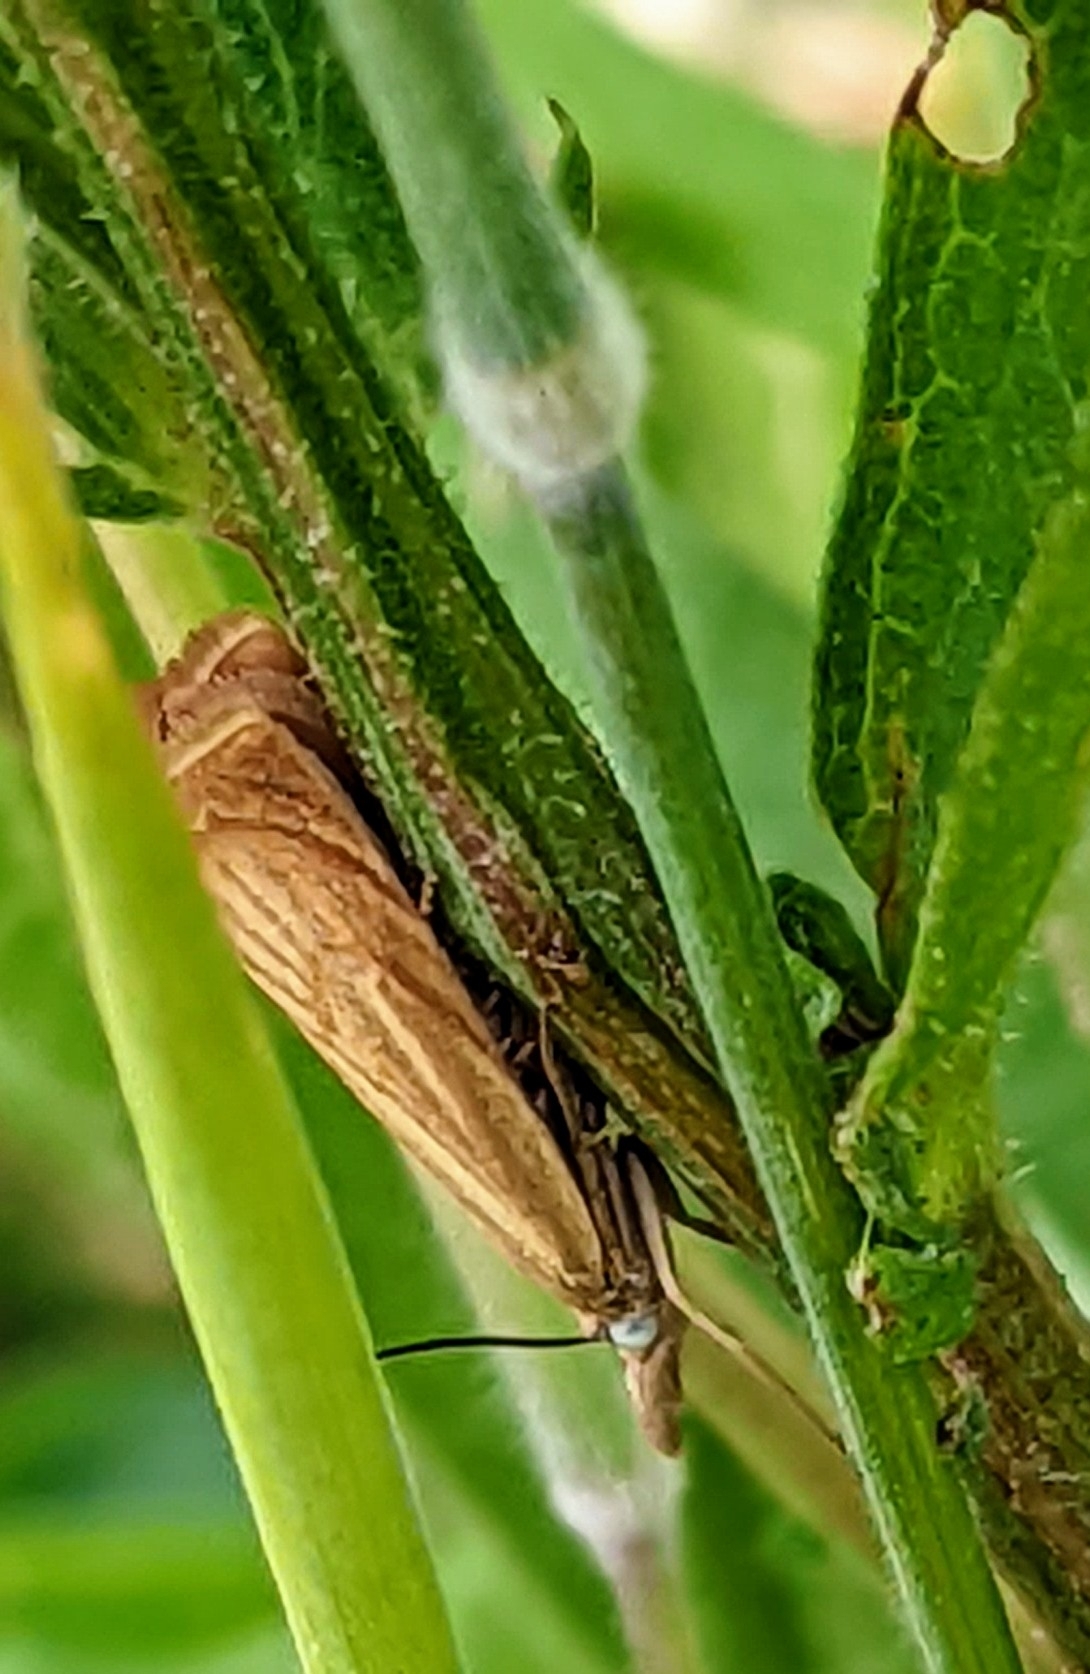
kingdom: Animalia
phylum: Arthropoda
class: Insecta
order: Lepidoptera
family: Crambidae
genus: Chrysoteuchia
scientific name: Chrysoteuchia culmella
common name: Garden grass-veneer
